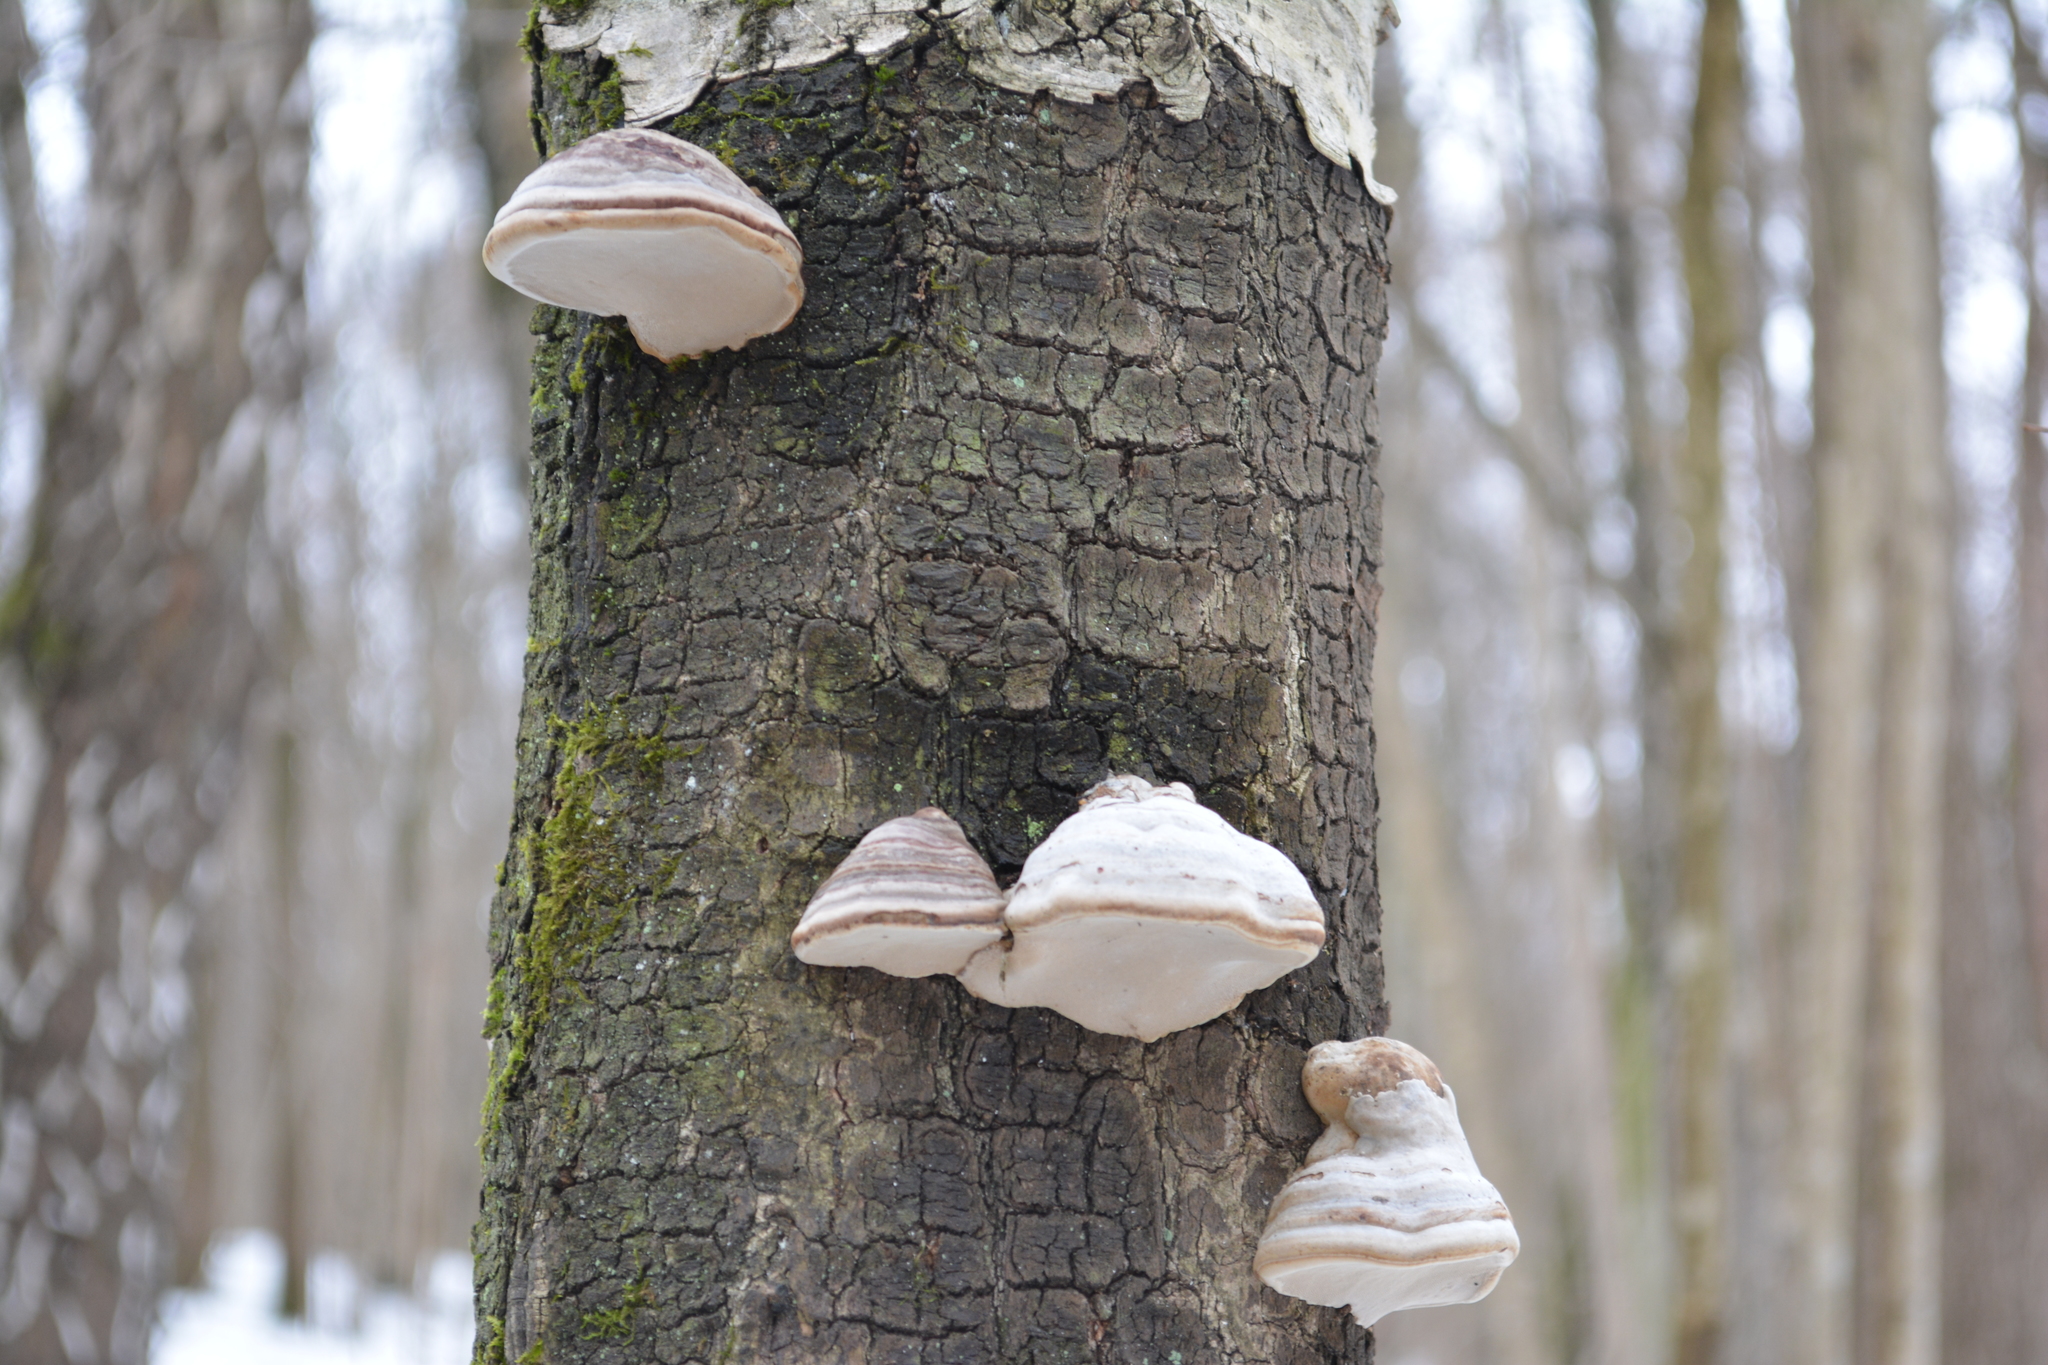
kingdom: Fungi
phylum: Basidiomycota
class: Agaricomycetes
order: Polyporales
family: Polyporaceae
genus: Fomes
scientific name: Fomes fomentarius
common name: Hoof fungus
